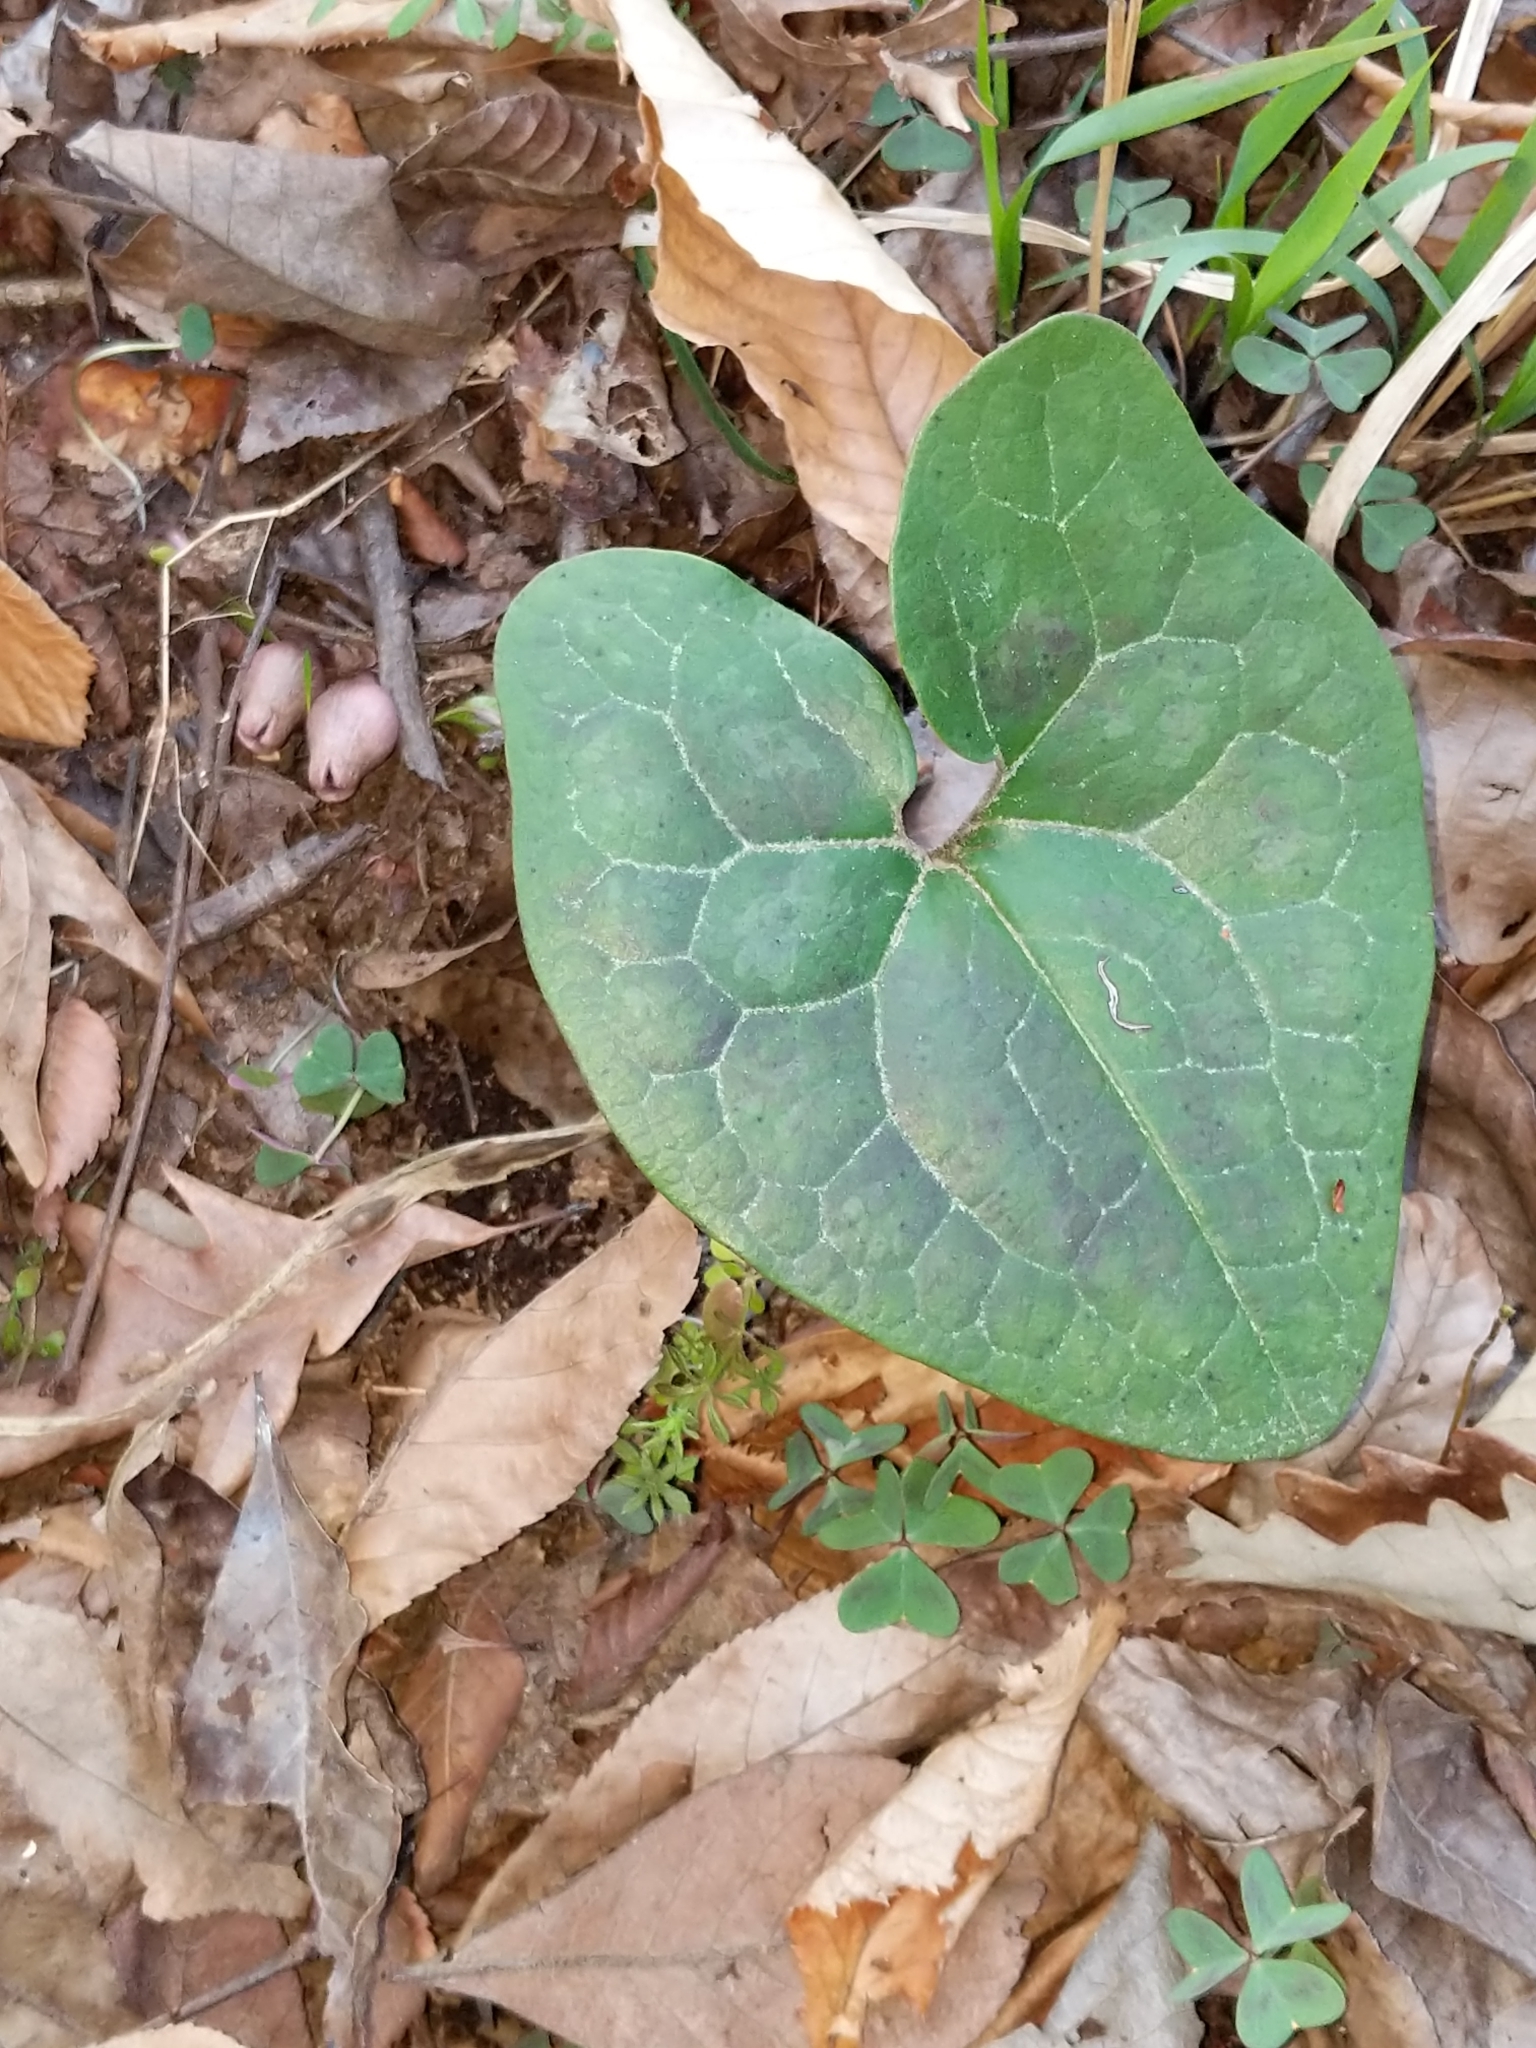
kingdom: Plantae
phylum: Tracheophyta
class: Magnoliopsida
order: Piperales
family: Aristolochiaceae
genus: Hexastylis
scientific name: Hexastylis arifolia
